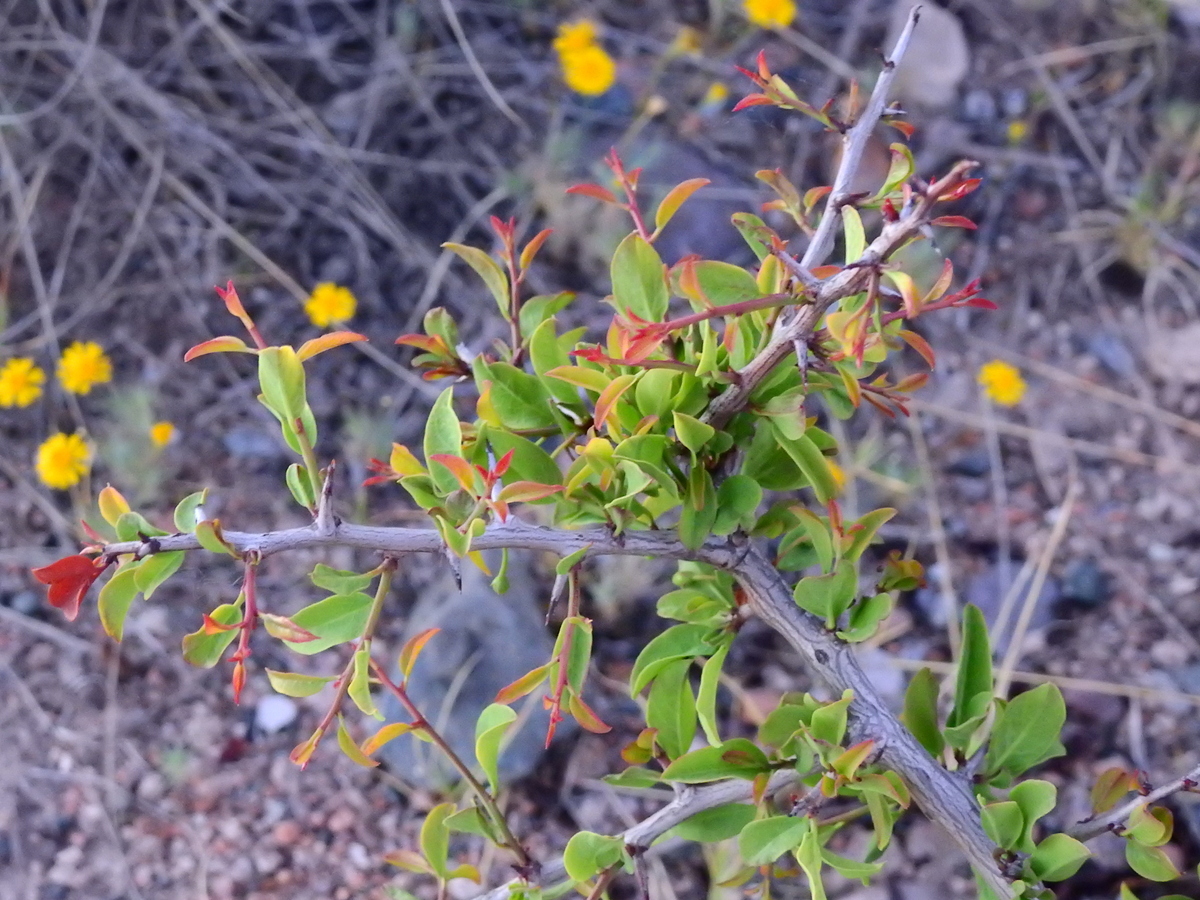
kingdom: Plantae
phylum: Tracheophyta
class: Magnoliopsida
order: Santalales
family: Ximeniaceae
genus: Ximenia
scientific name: Ximenia americana
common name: Tallowwood
